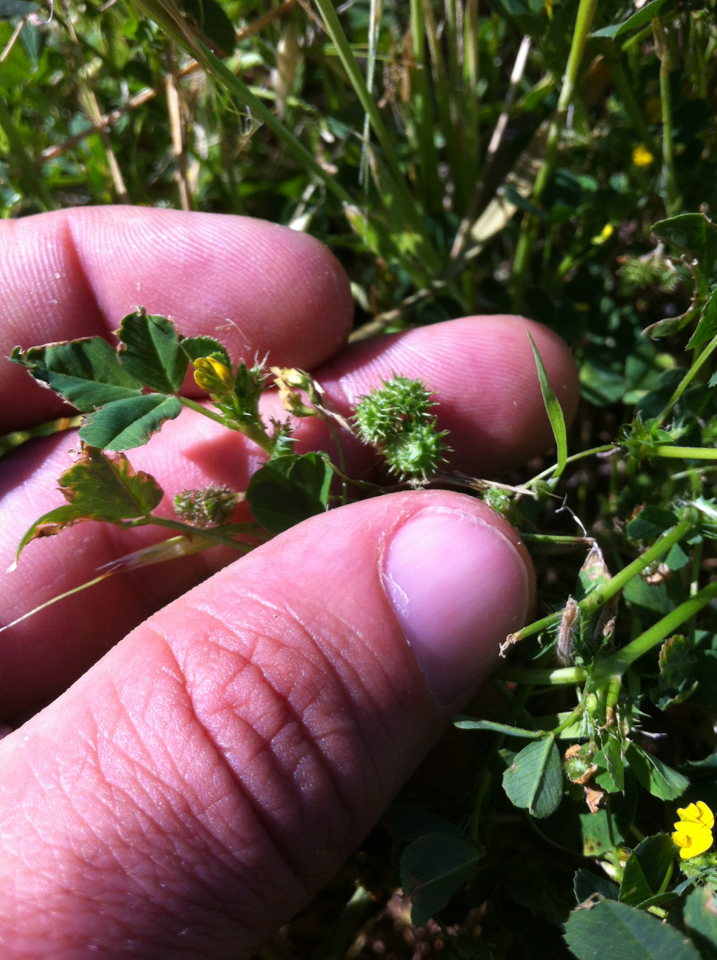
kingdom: Plantae
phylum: Tracheophyta
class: Magnoliopsida
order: Fabales
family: Fabaceae
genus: Medicago
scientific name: Medicago polymorpha
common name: Burclover
